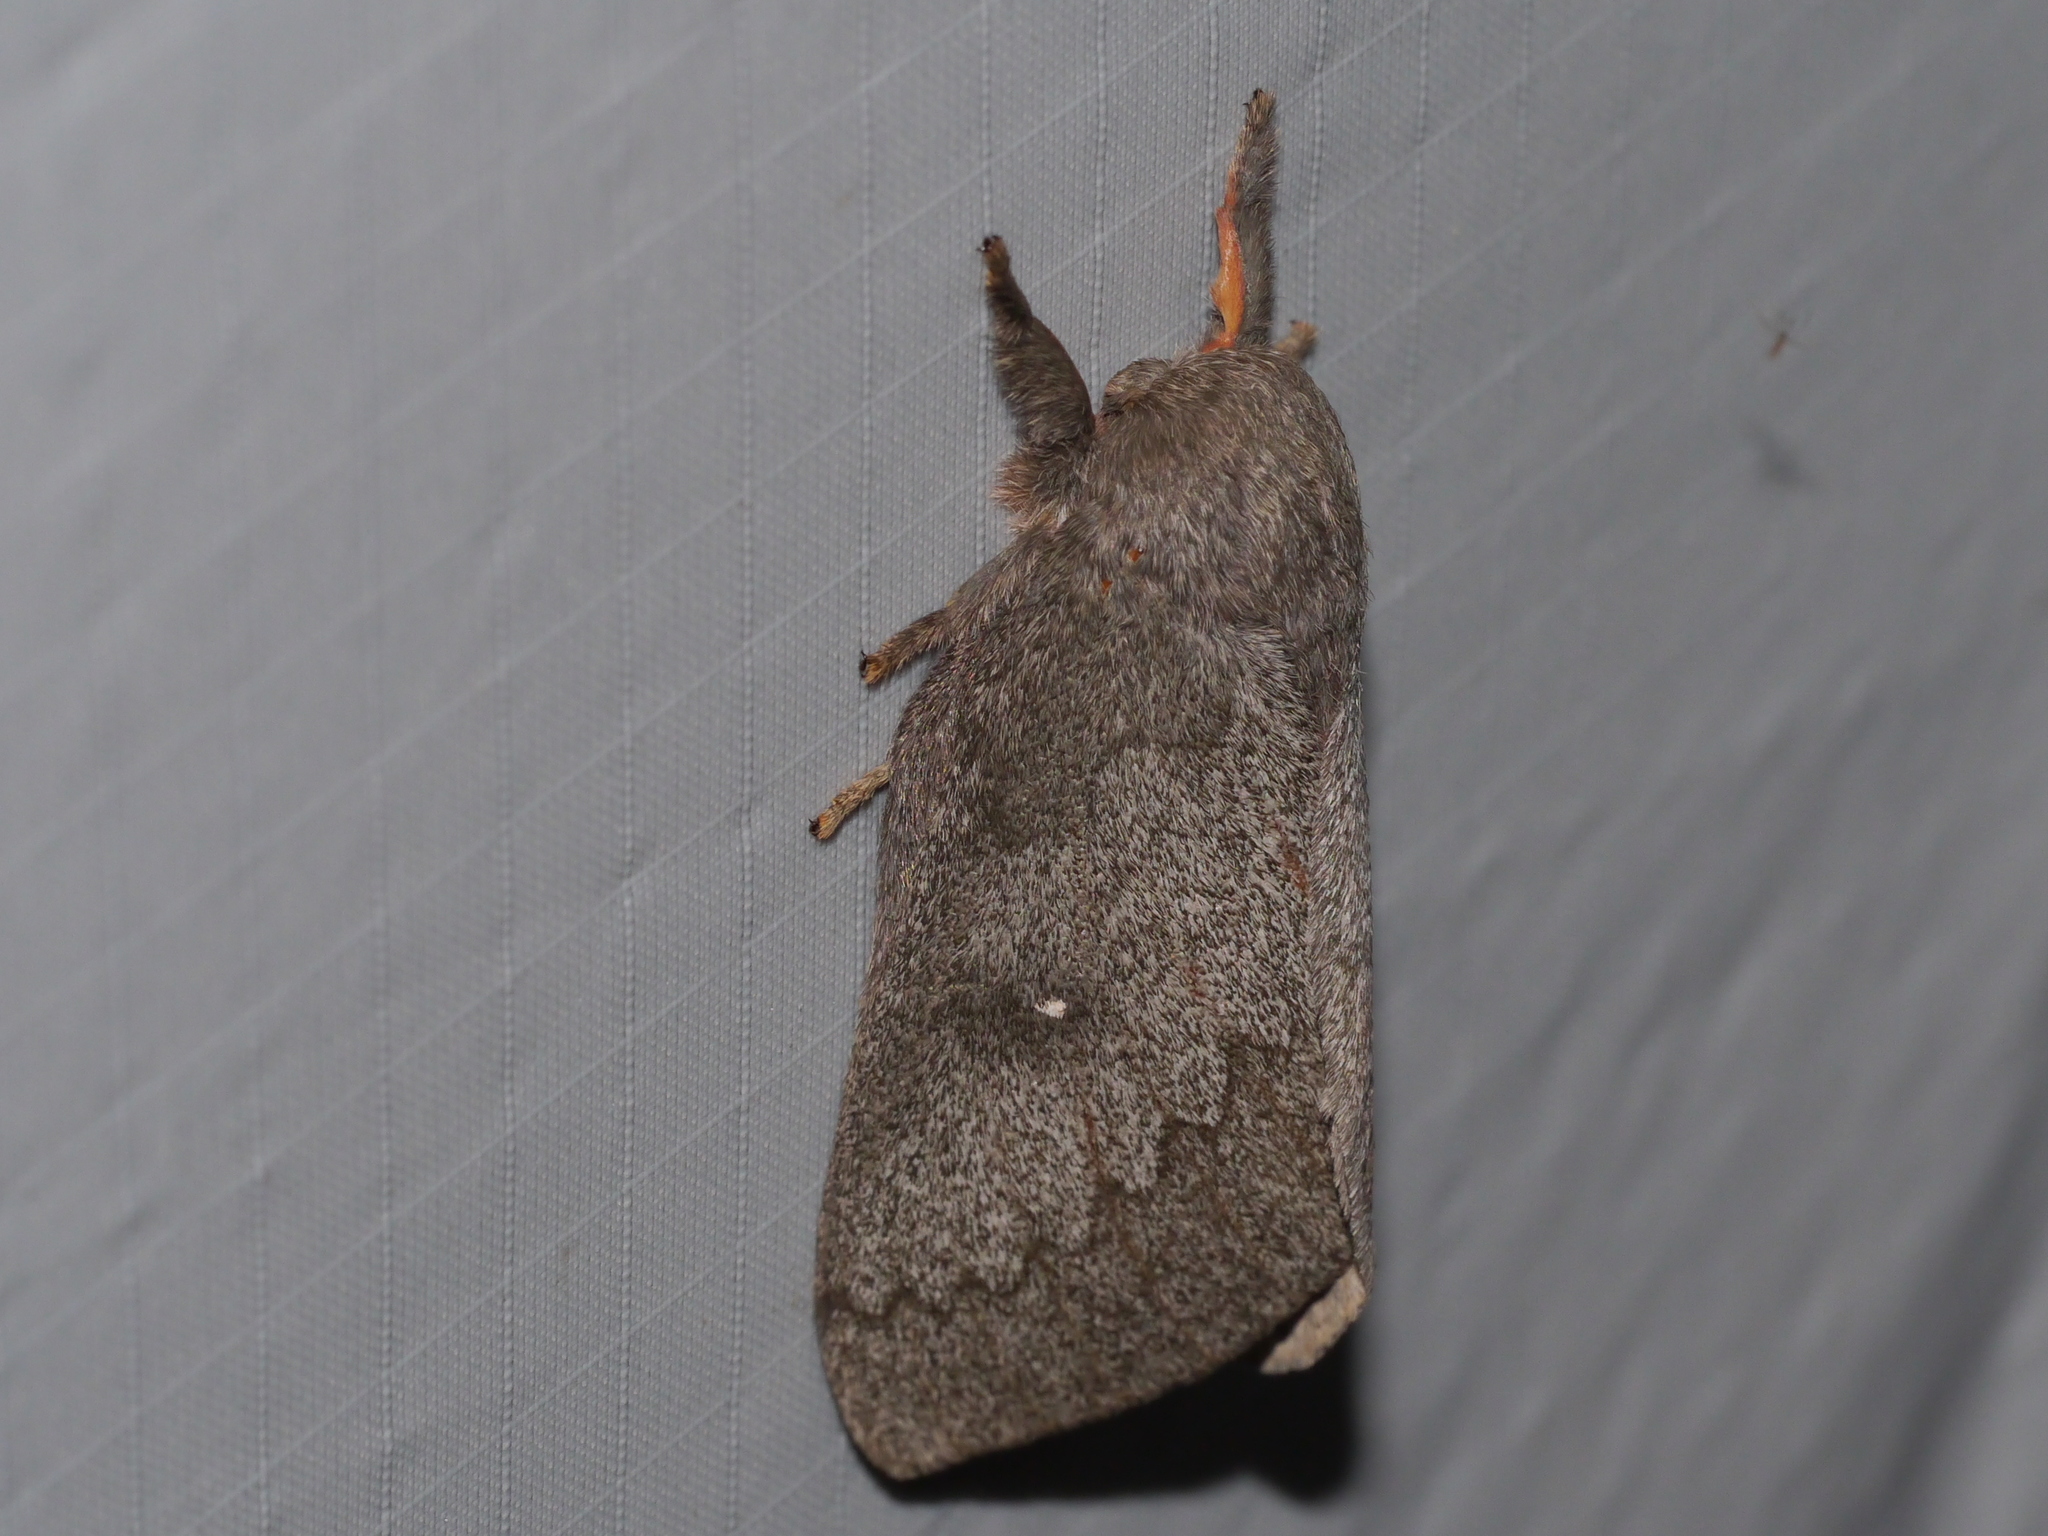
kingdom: Animalia
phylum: Arthropoda
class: Insecta
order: Lepidoptera
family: Saturniidae
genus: Syssphinx
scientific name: Syssphinx hubbardi
